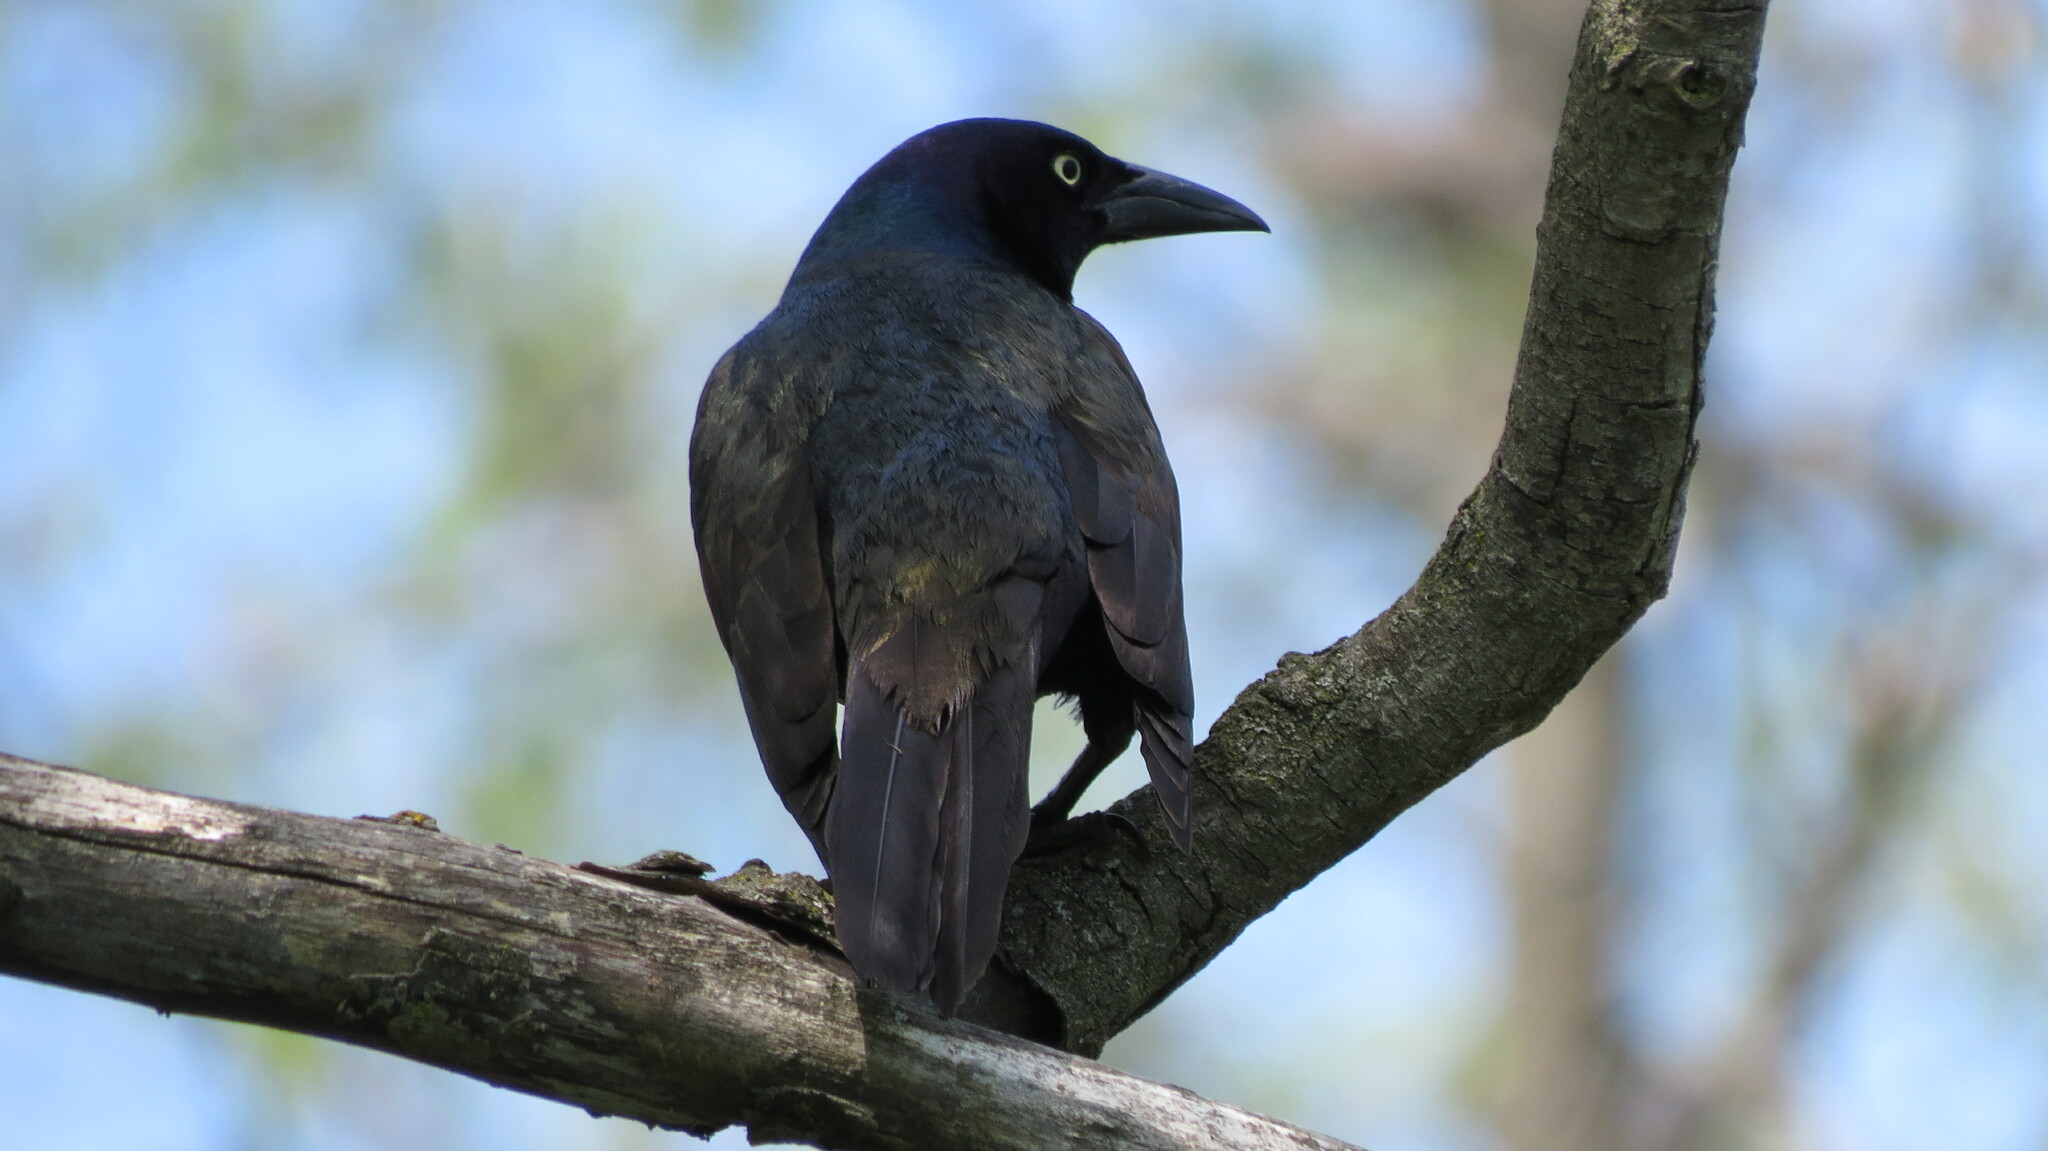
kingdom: Animalia
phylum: Chordata
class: Aves
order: Passeriformes
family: Icteridae
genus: Quiscalus
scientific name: Quiscalus quiscula
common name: Common grackle
